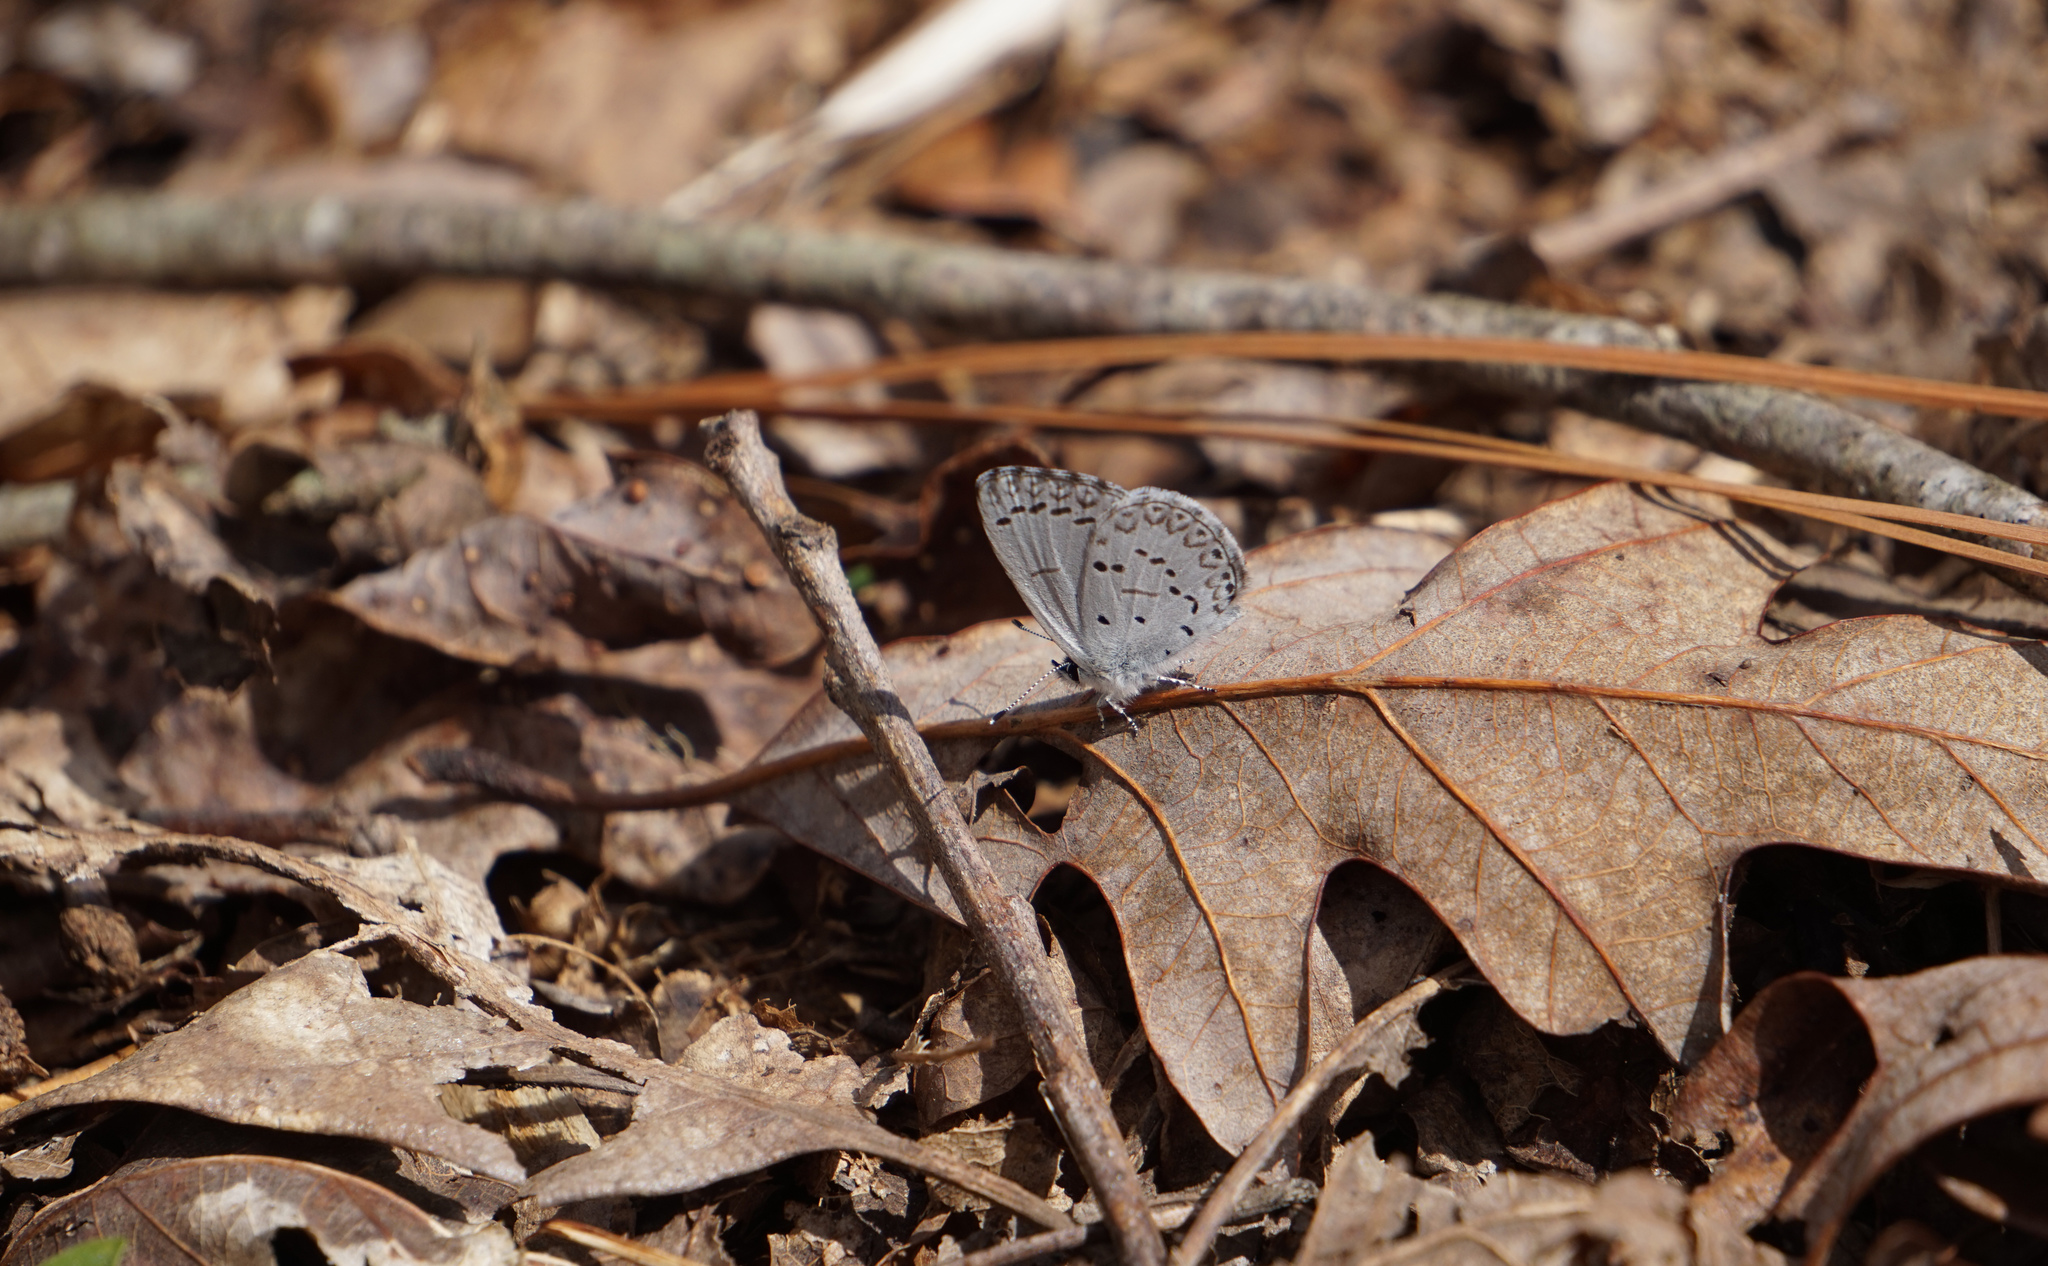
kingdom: Animalia
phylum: Arthropoda
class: Insecta
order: Lepidoptera
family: Lycaenidae
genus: Cyaniris
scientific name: Cyaniris neglecta
